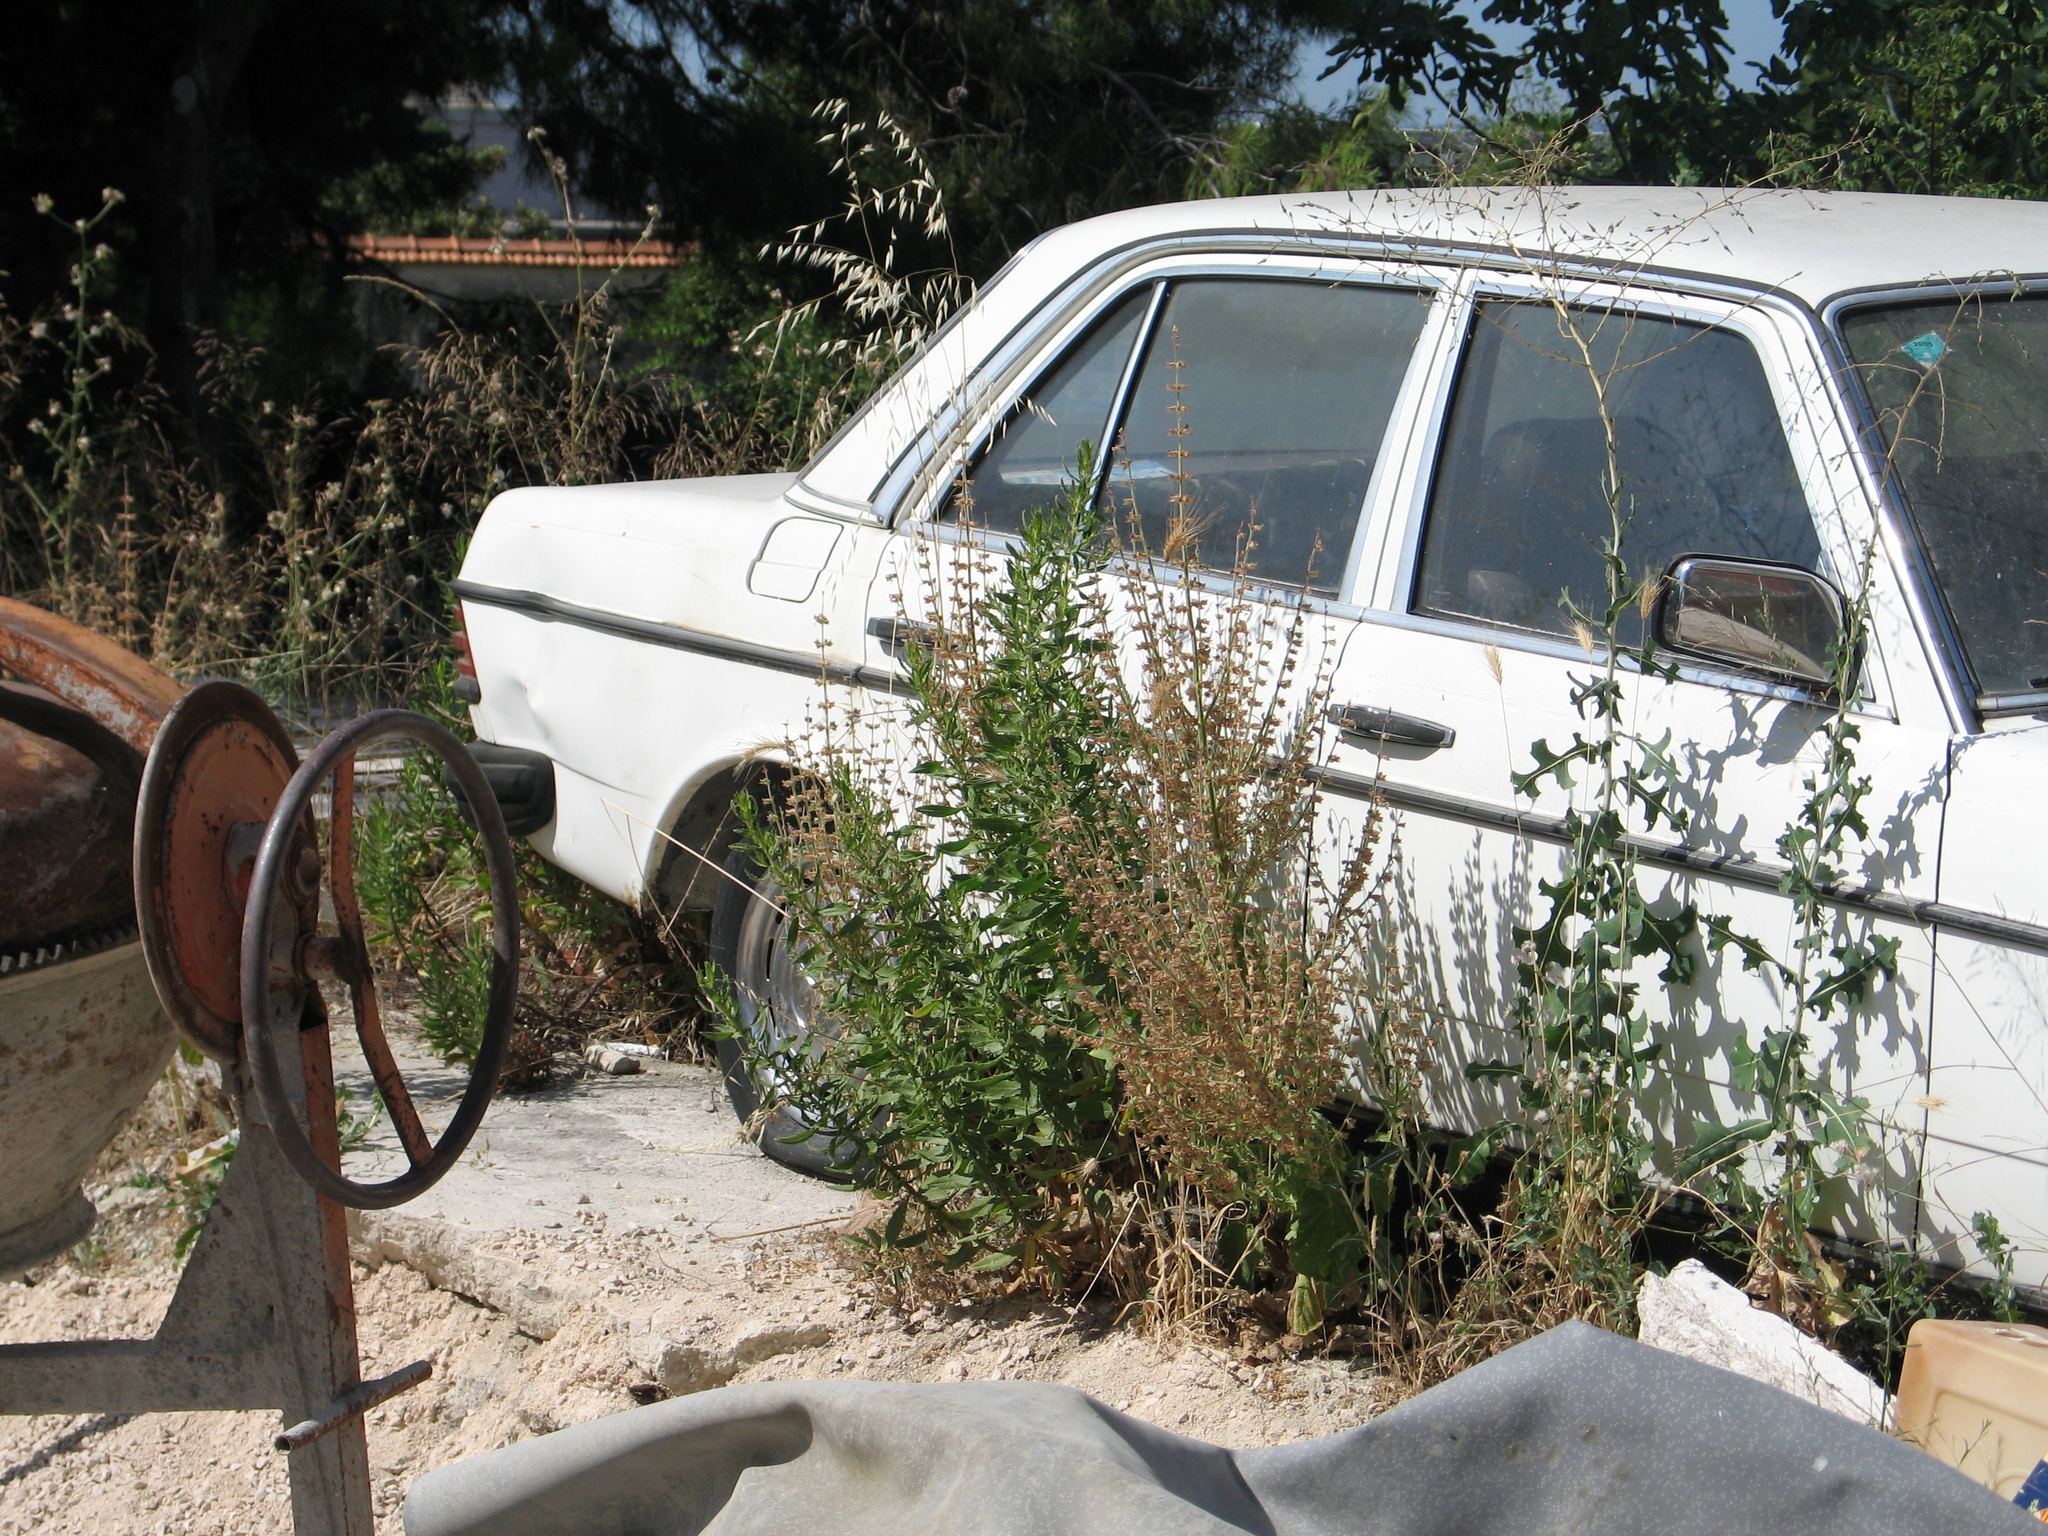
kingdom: Plantae
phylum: Tracheophyta
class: Magnoliopsida
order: Asterales
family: Asteraceae
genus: Dittrichia
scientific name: Dittrichia viscosa
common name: Woody fleabane
